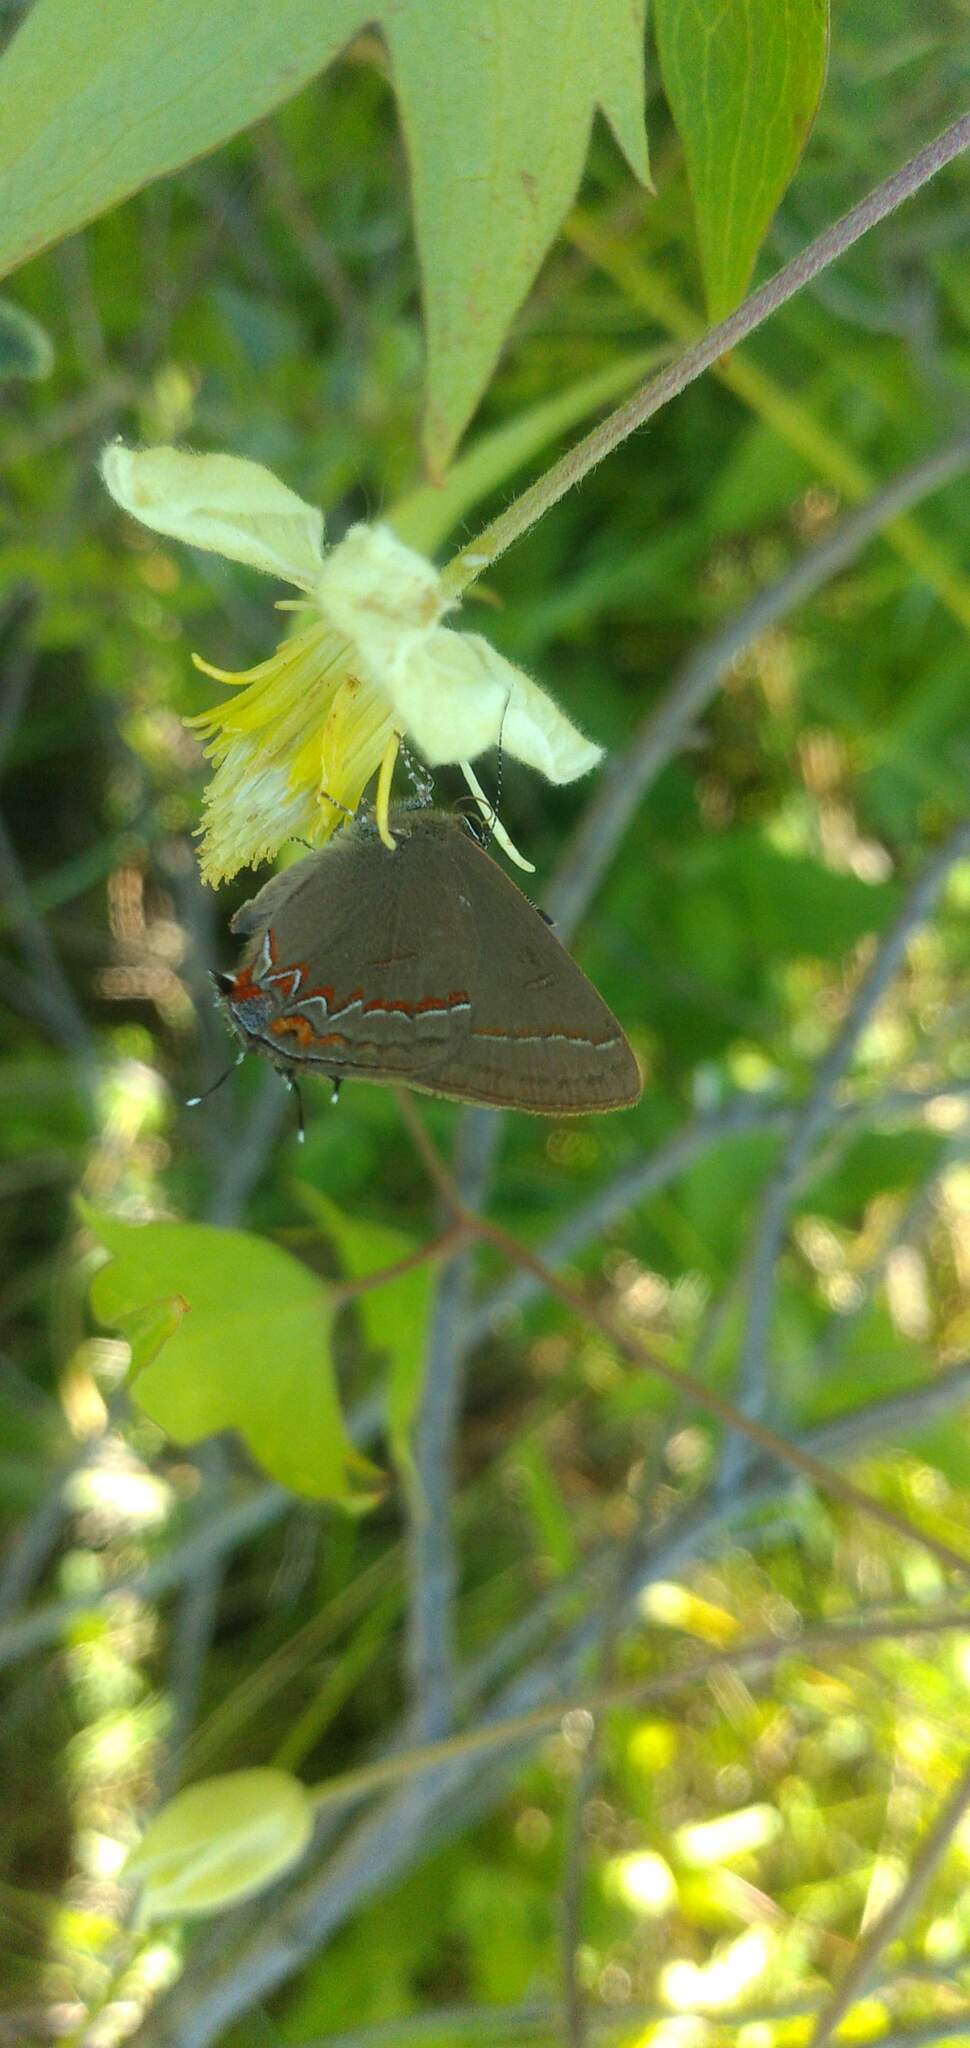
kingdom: Animalia
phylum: Arthropoda
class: Insecta
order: Lepidoptera
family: Lycaenidae
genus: Calycopis
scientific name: Calycopis caulonia
